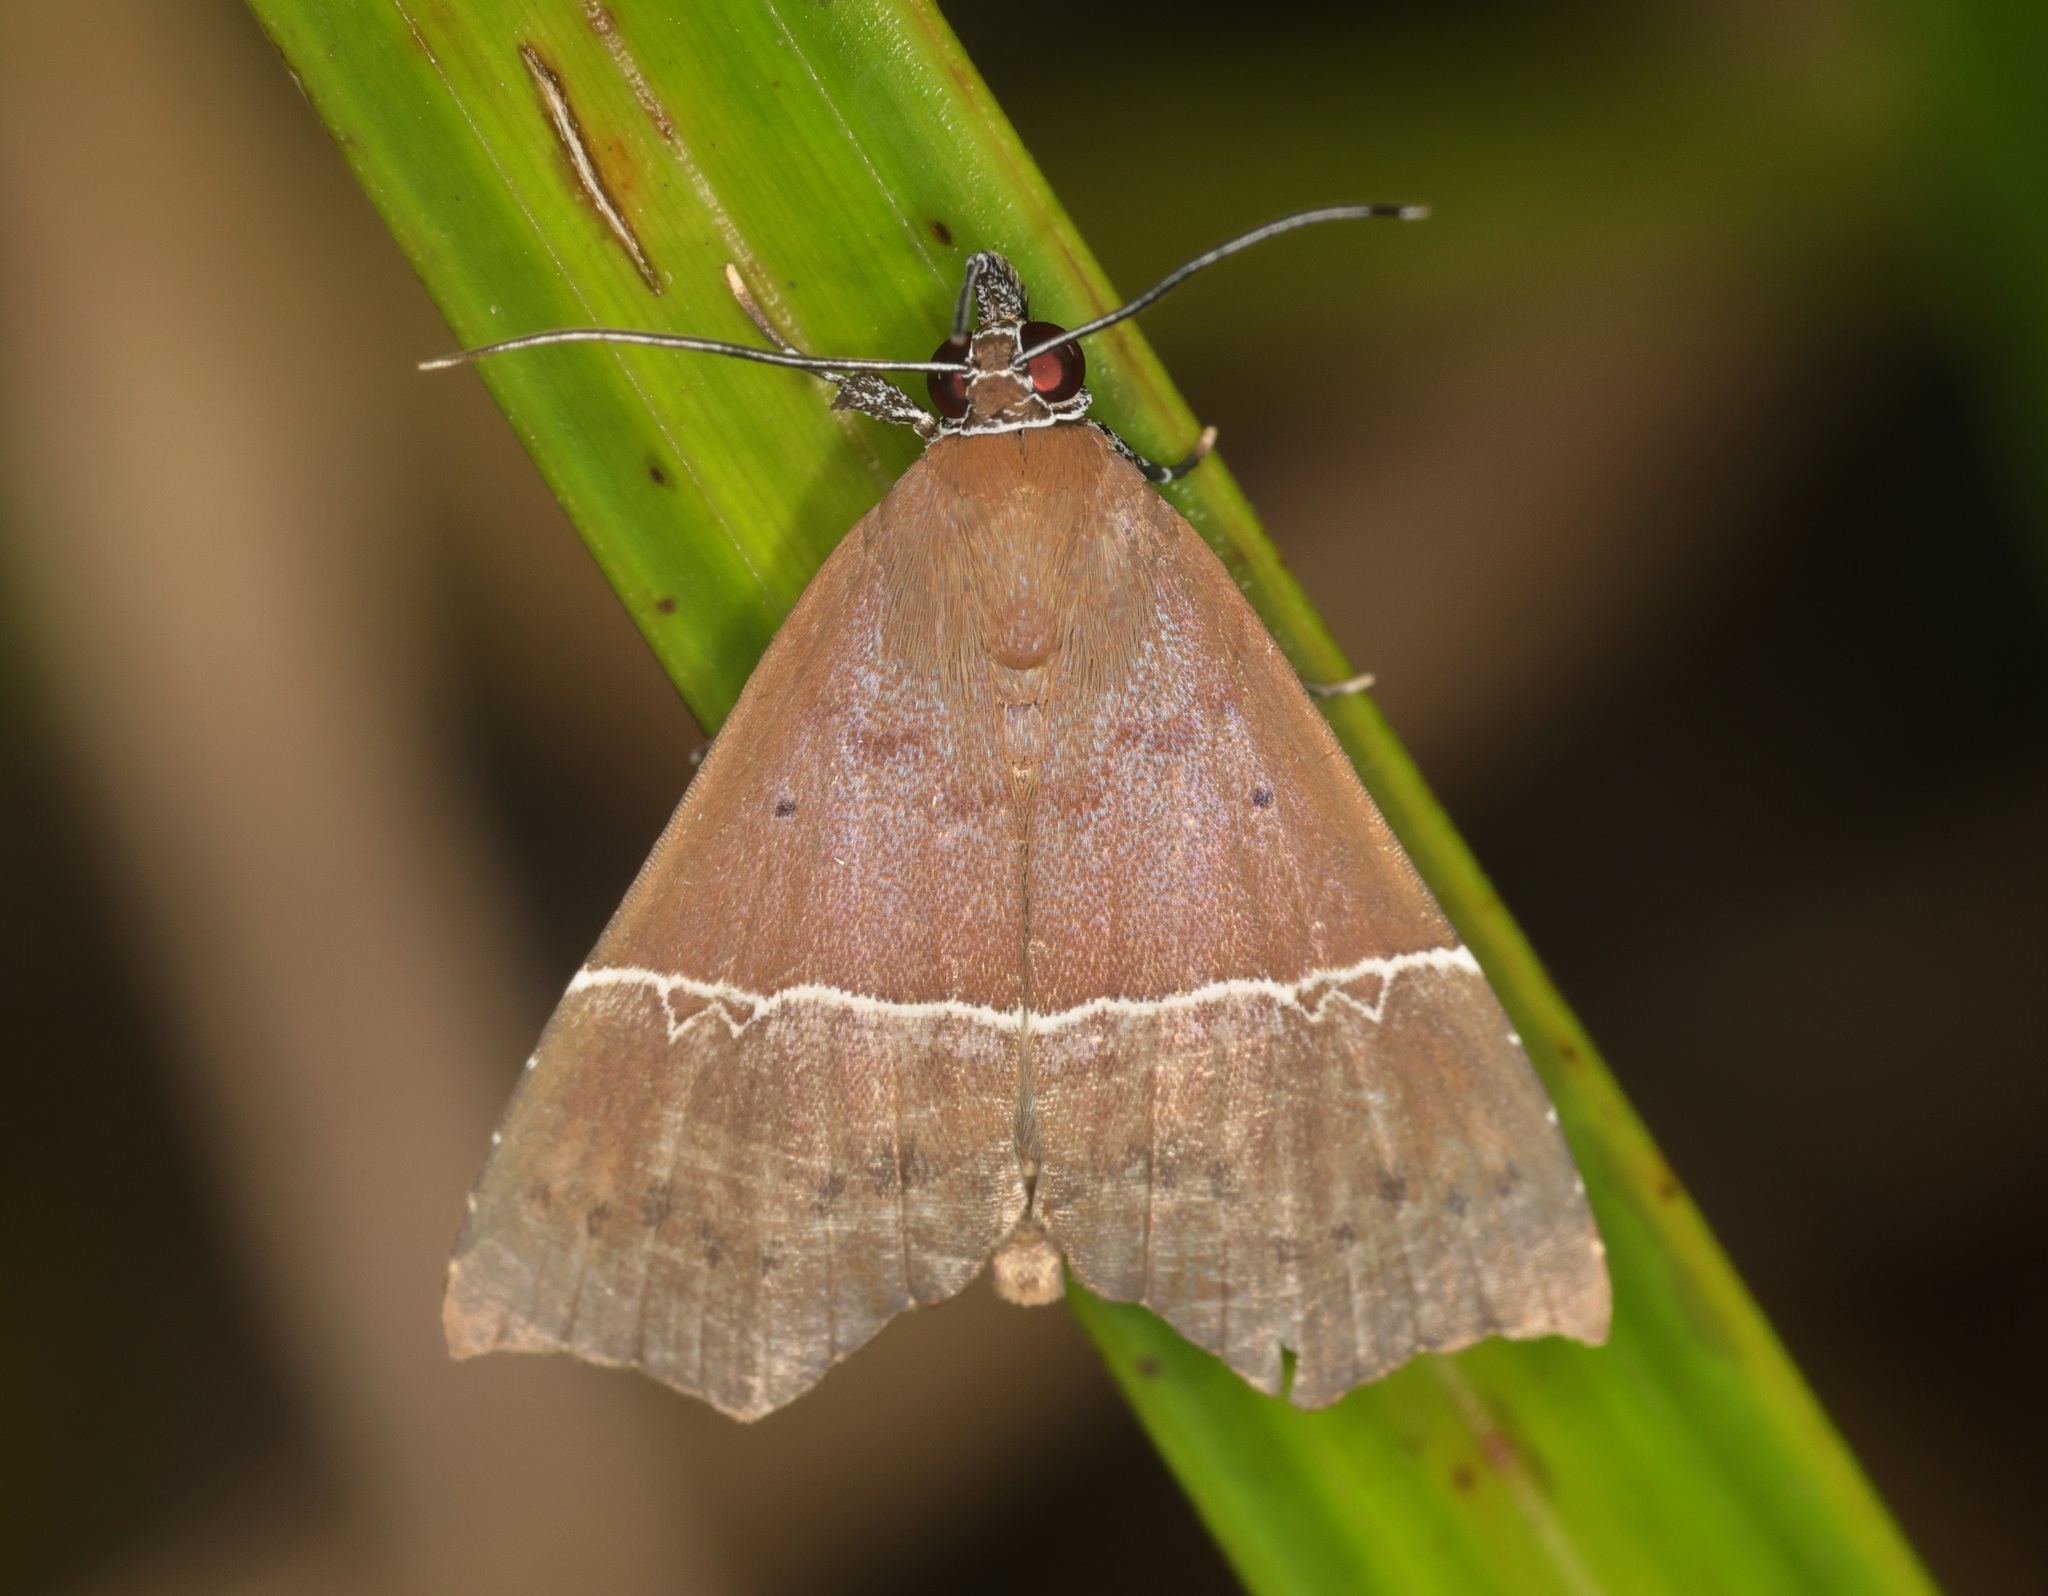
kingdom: Animalia
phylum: Arthropoda
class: Insecta
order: Lepidoptera
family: Erebidae
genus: Catada
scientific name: Catada vagalis
